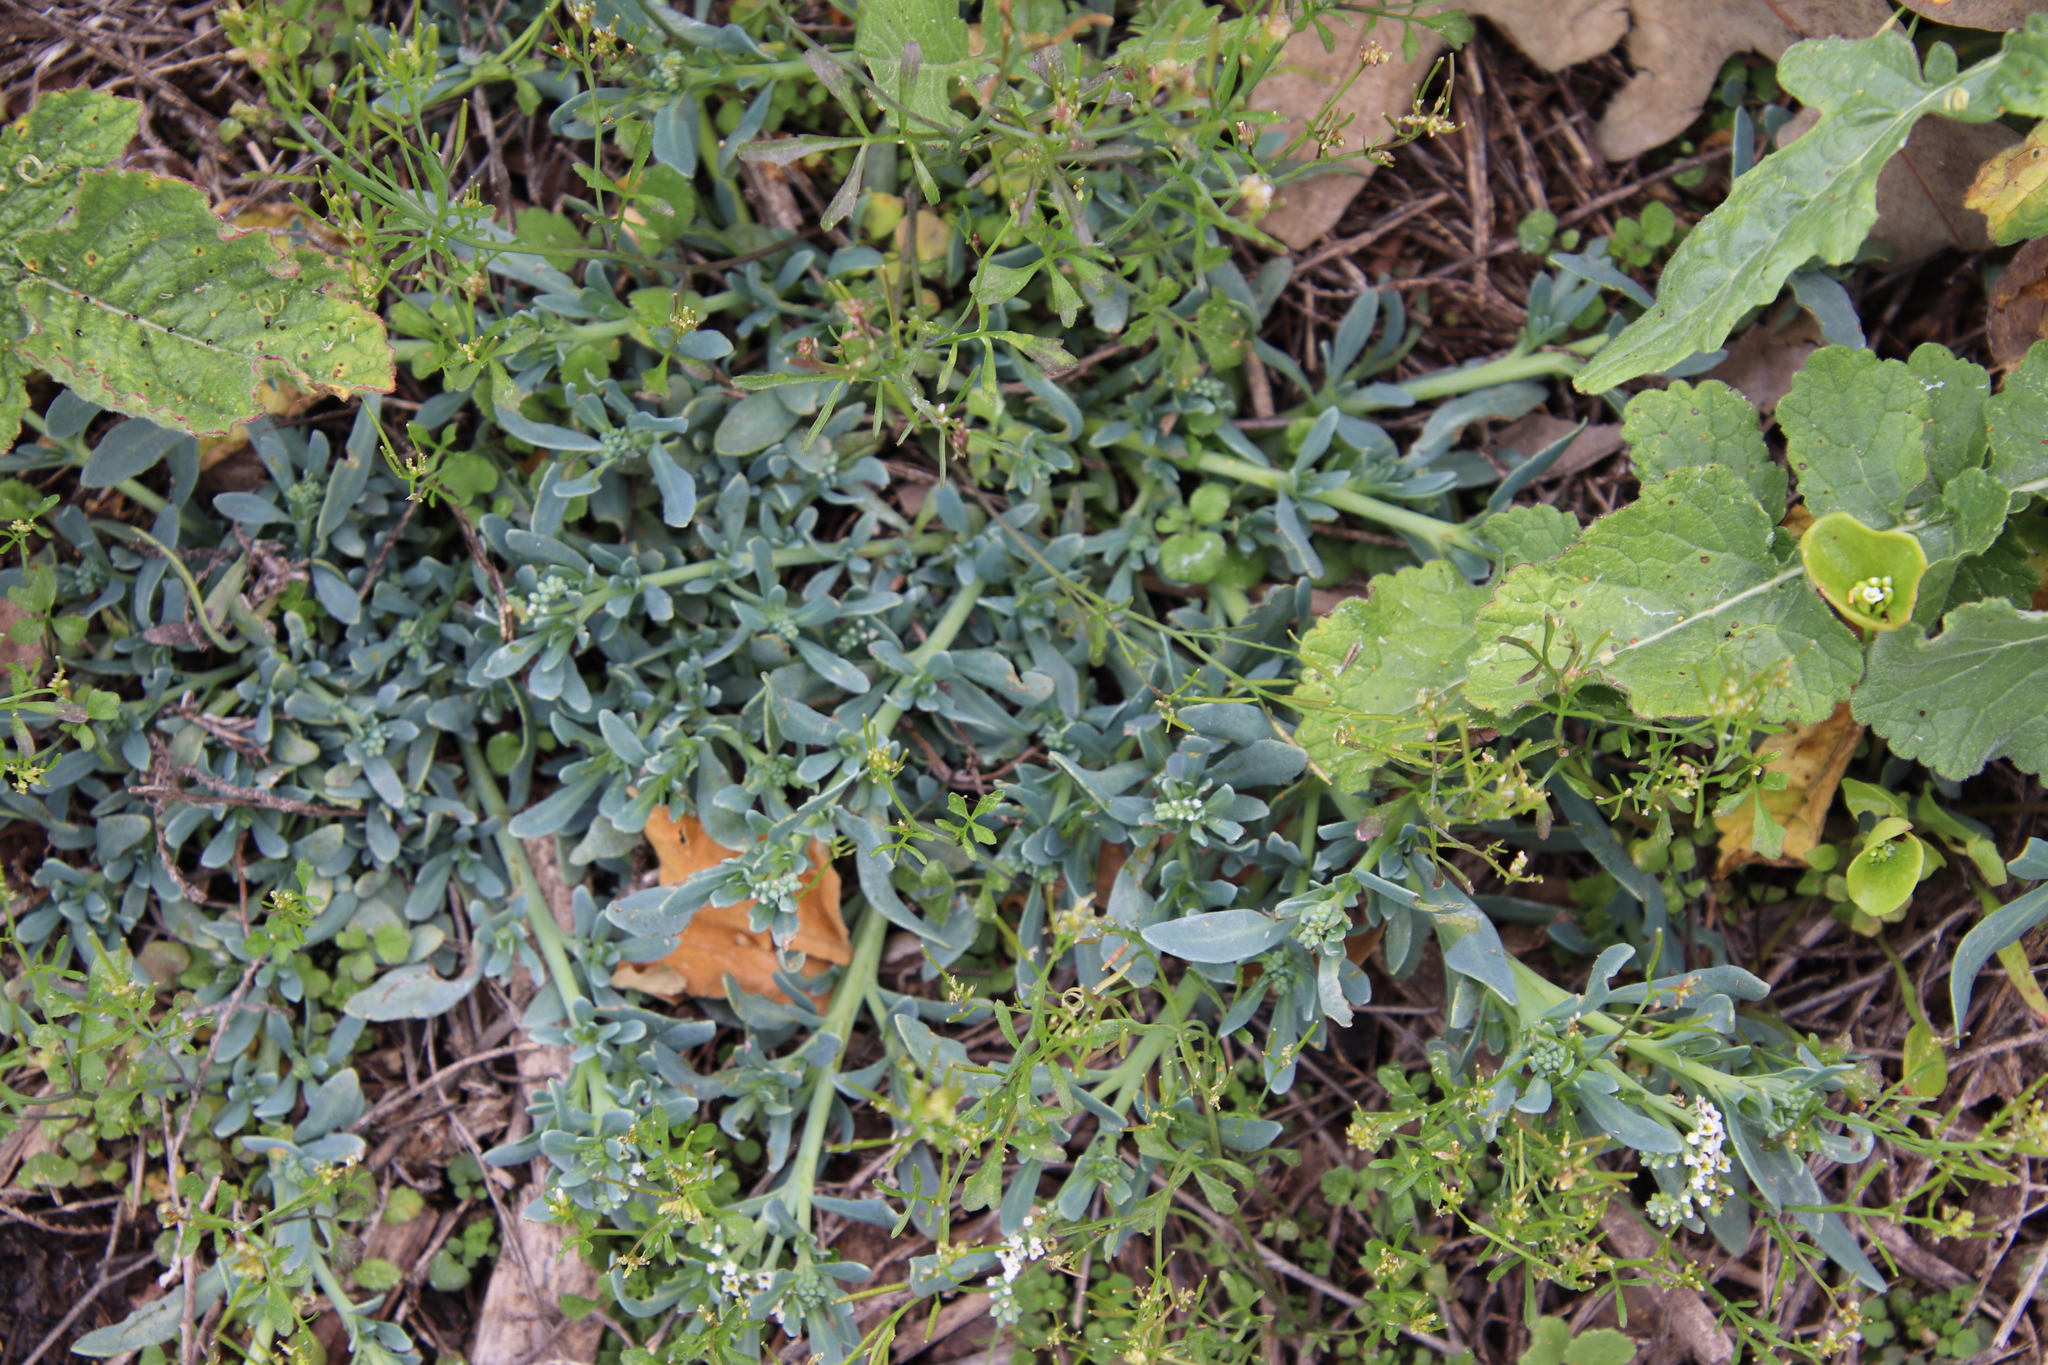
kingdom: Plantae
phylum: Tracheophyta
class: Magnoliopsida
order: Boraginales
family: Heliotropiaceae
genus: Heliotropium
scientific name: Heliotropium curassavicum
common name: Seaside heliotrope
